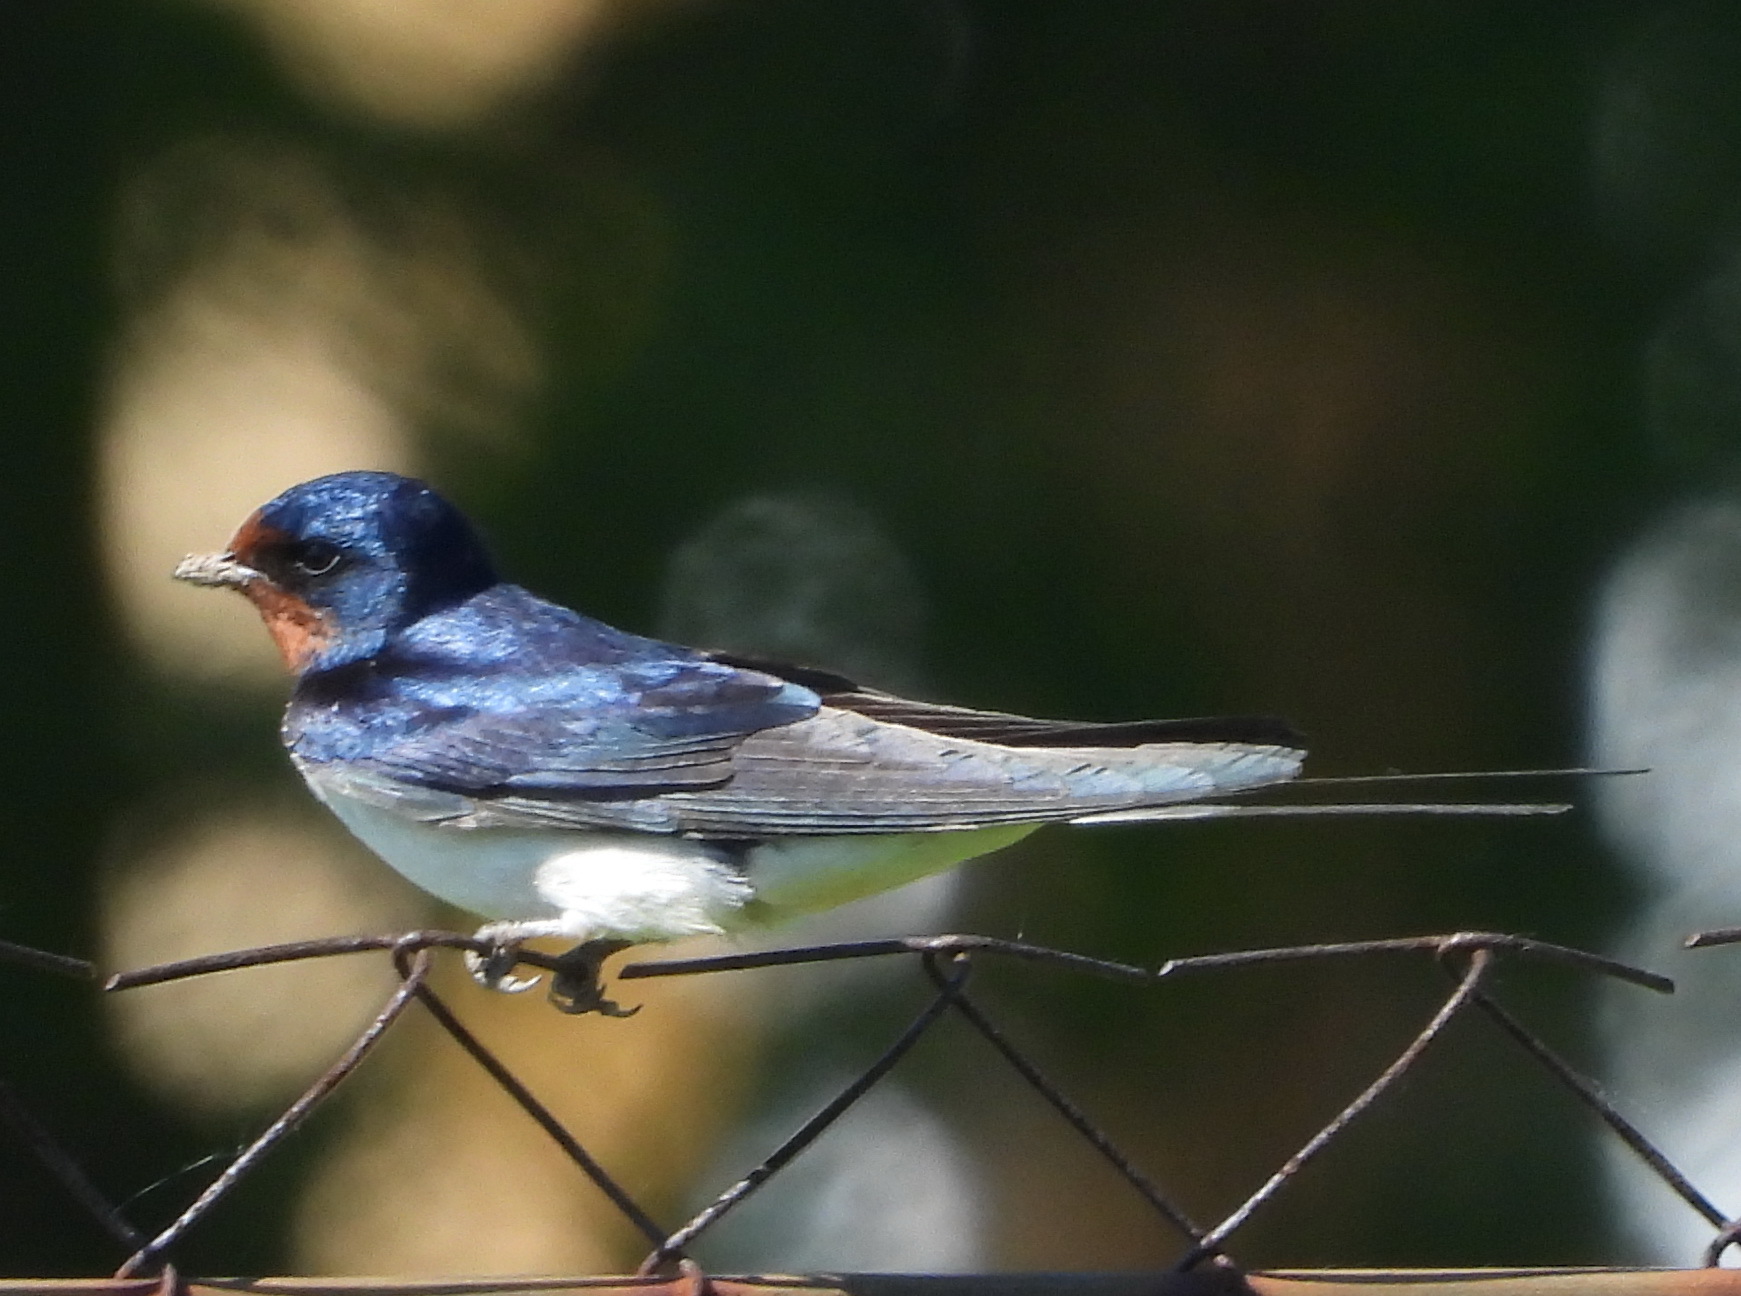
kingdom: Animalia
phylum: Chordata
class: Aves
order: Passeriformes
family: Hirundinidae
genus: Hirundo
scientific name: Hirundo rustica
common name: Barn swallow
